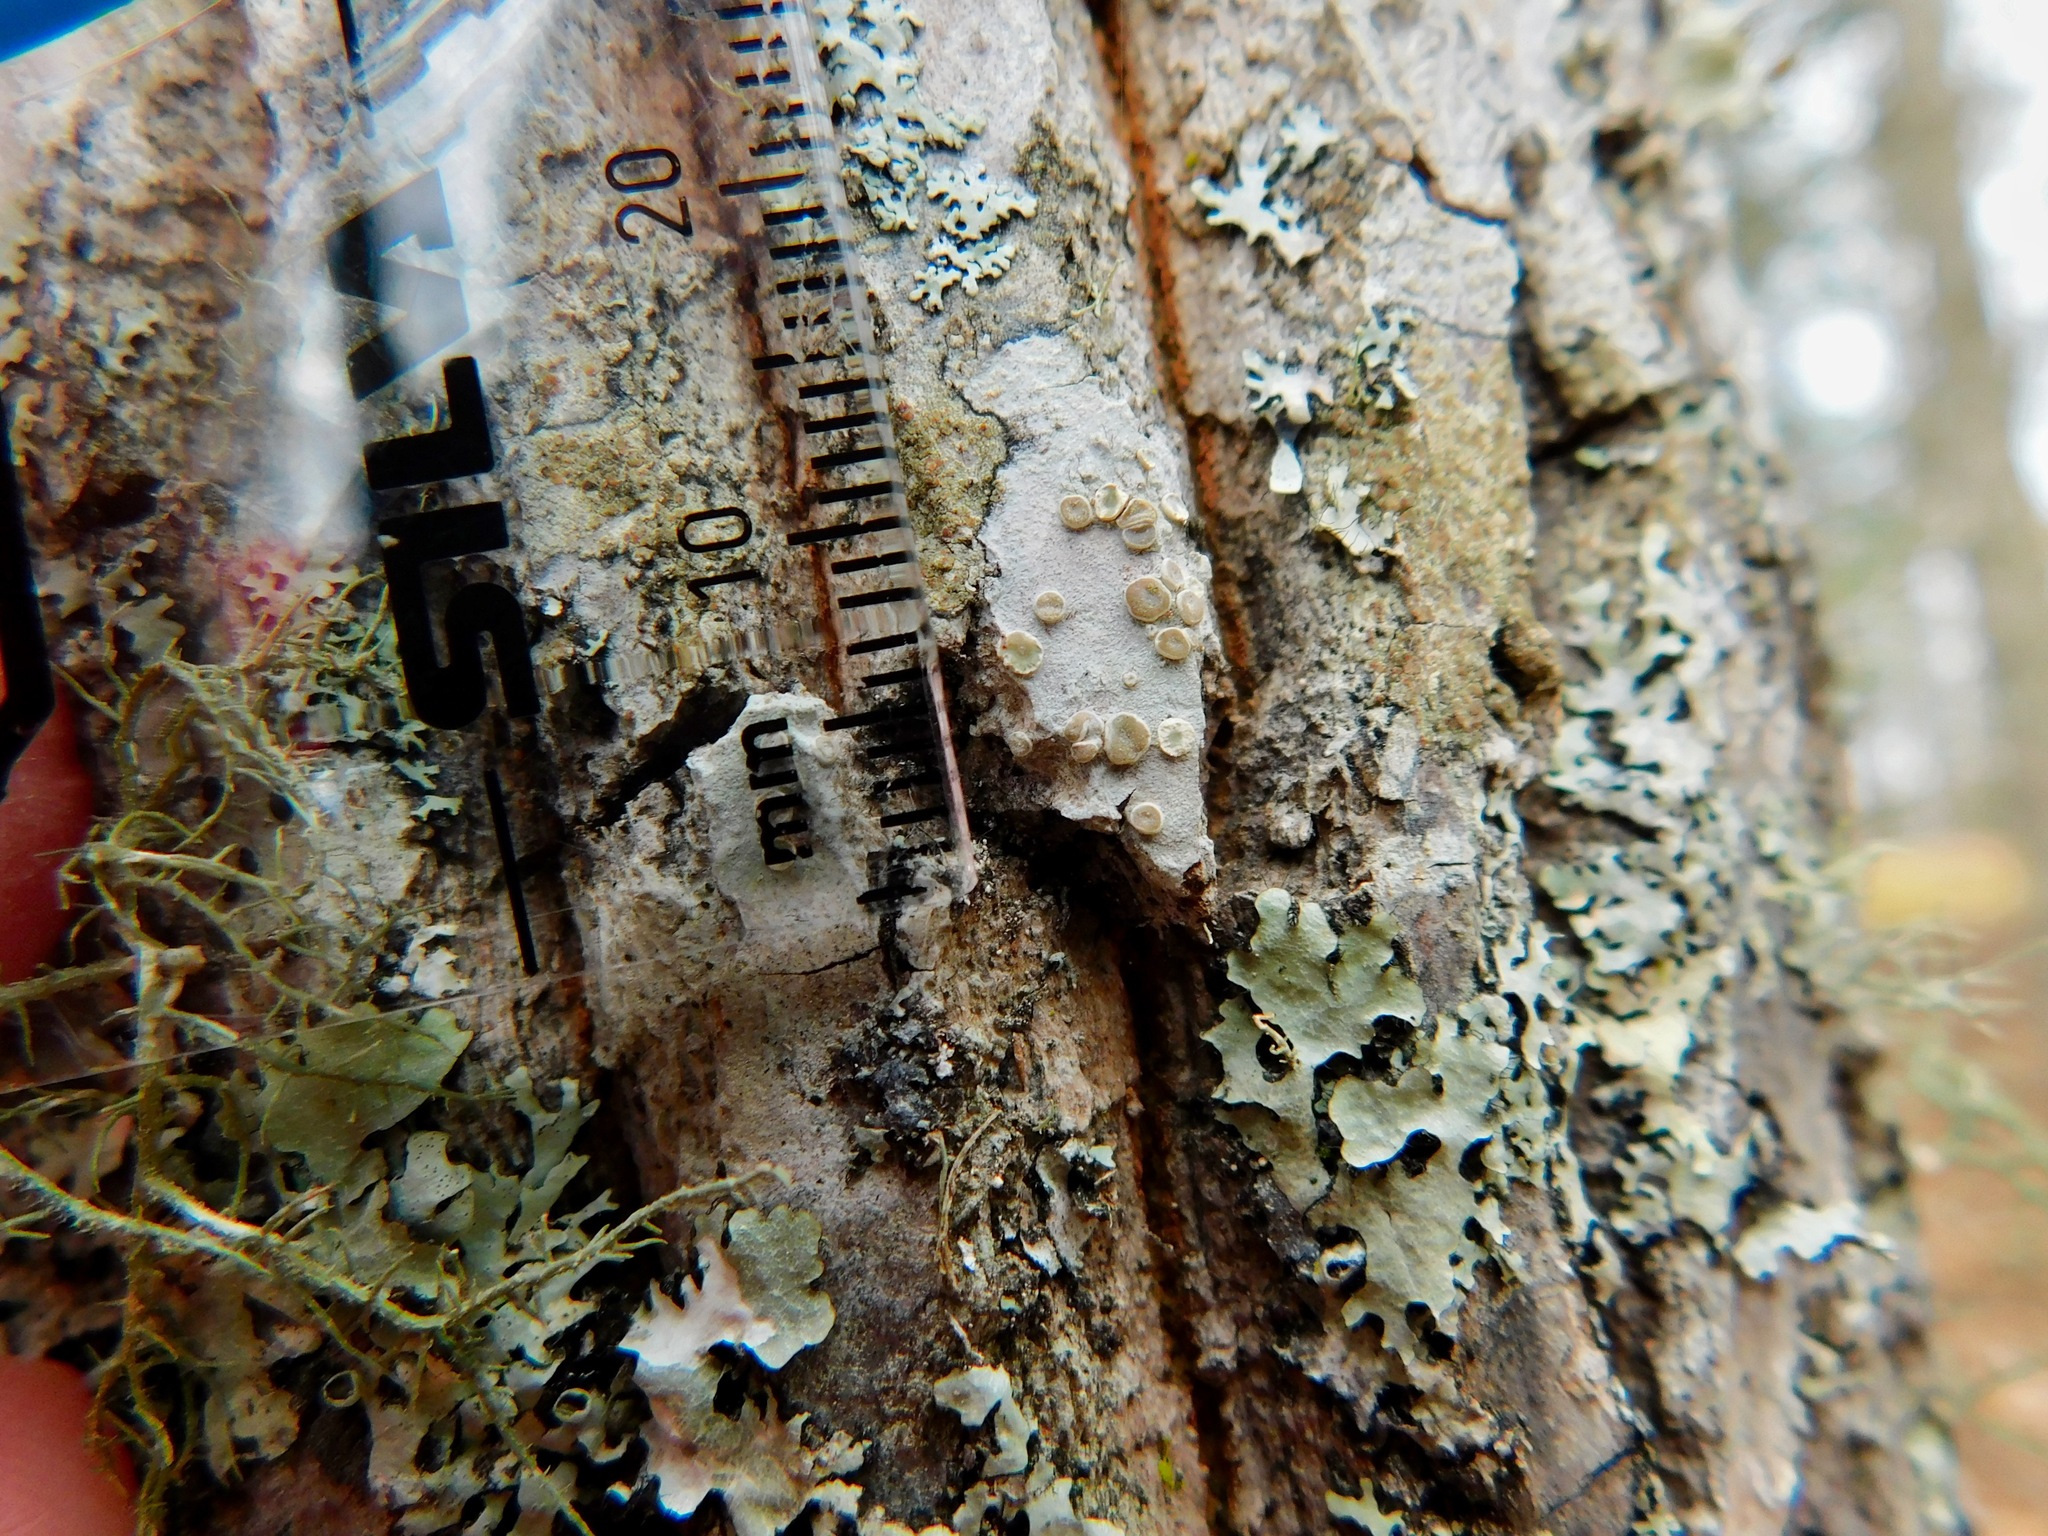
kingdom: Fungi
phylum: Ascomycota
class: Lecanoromycetes
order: Lecanorales
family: Lecanoraceae
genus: Lecanora
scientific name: Lecanora caesiorubella
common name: Frosted rim-lichen
